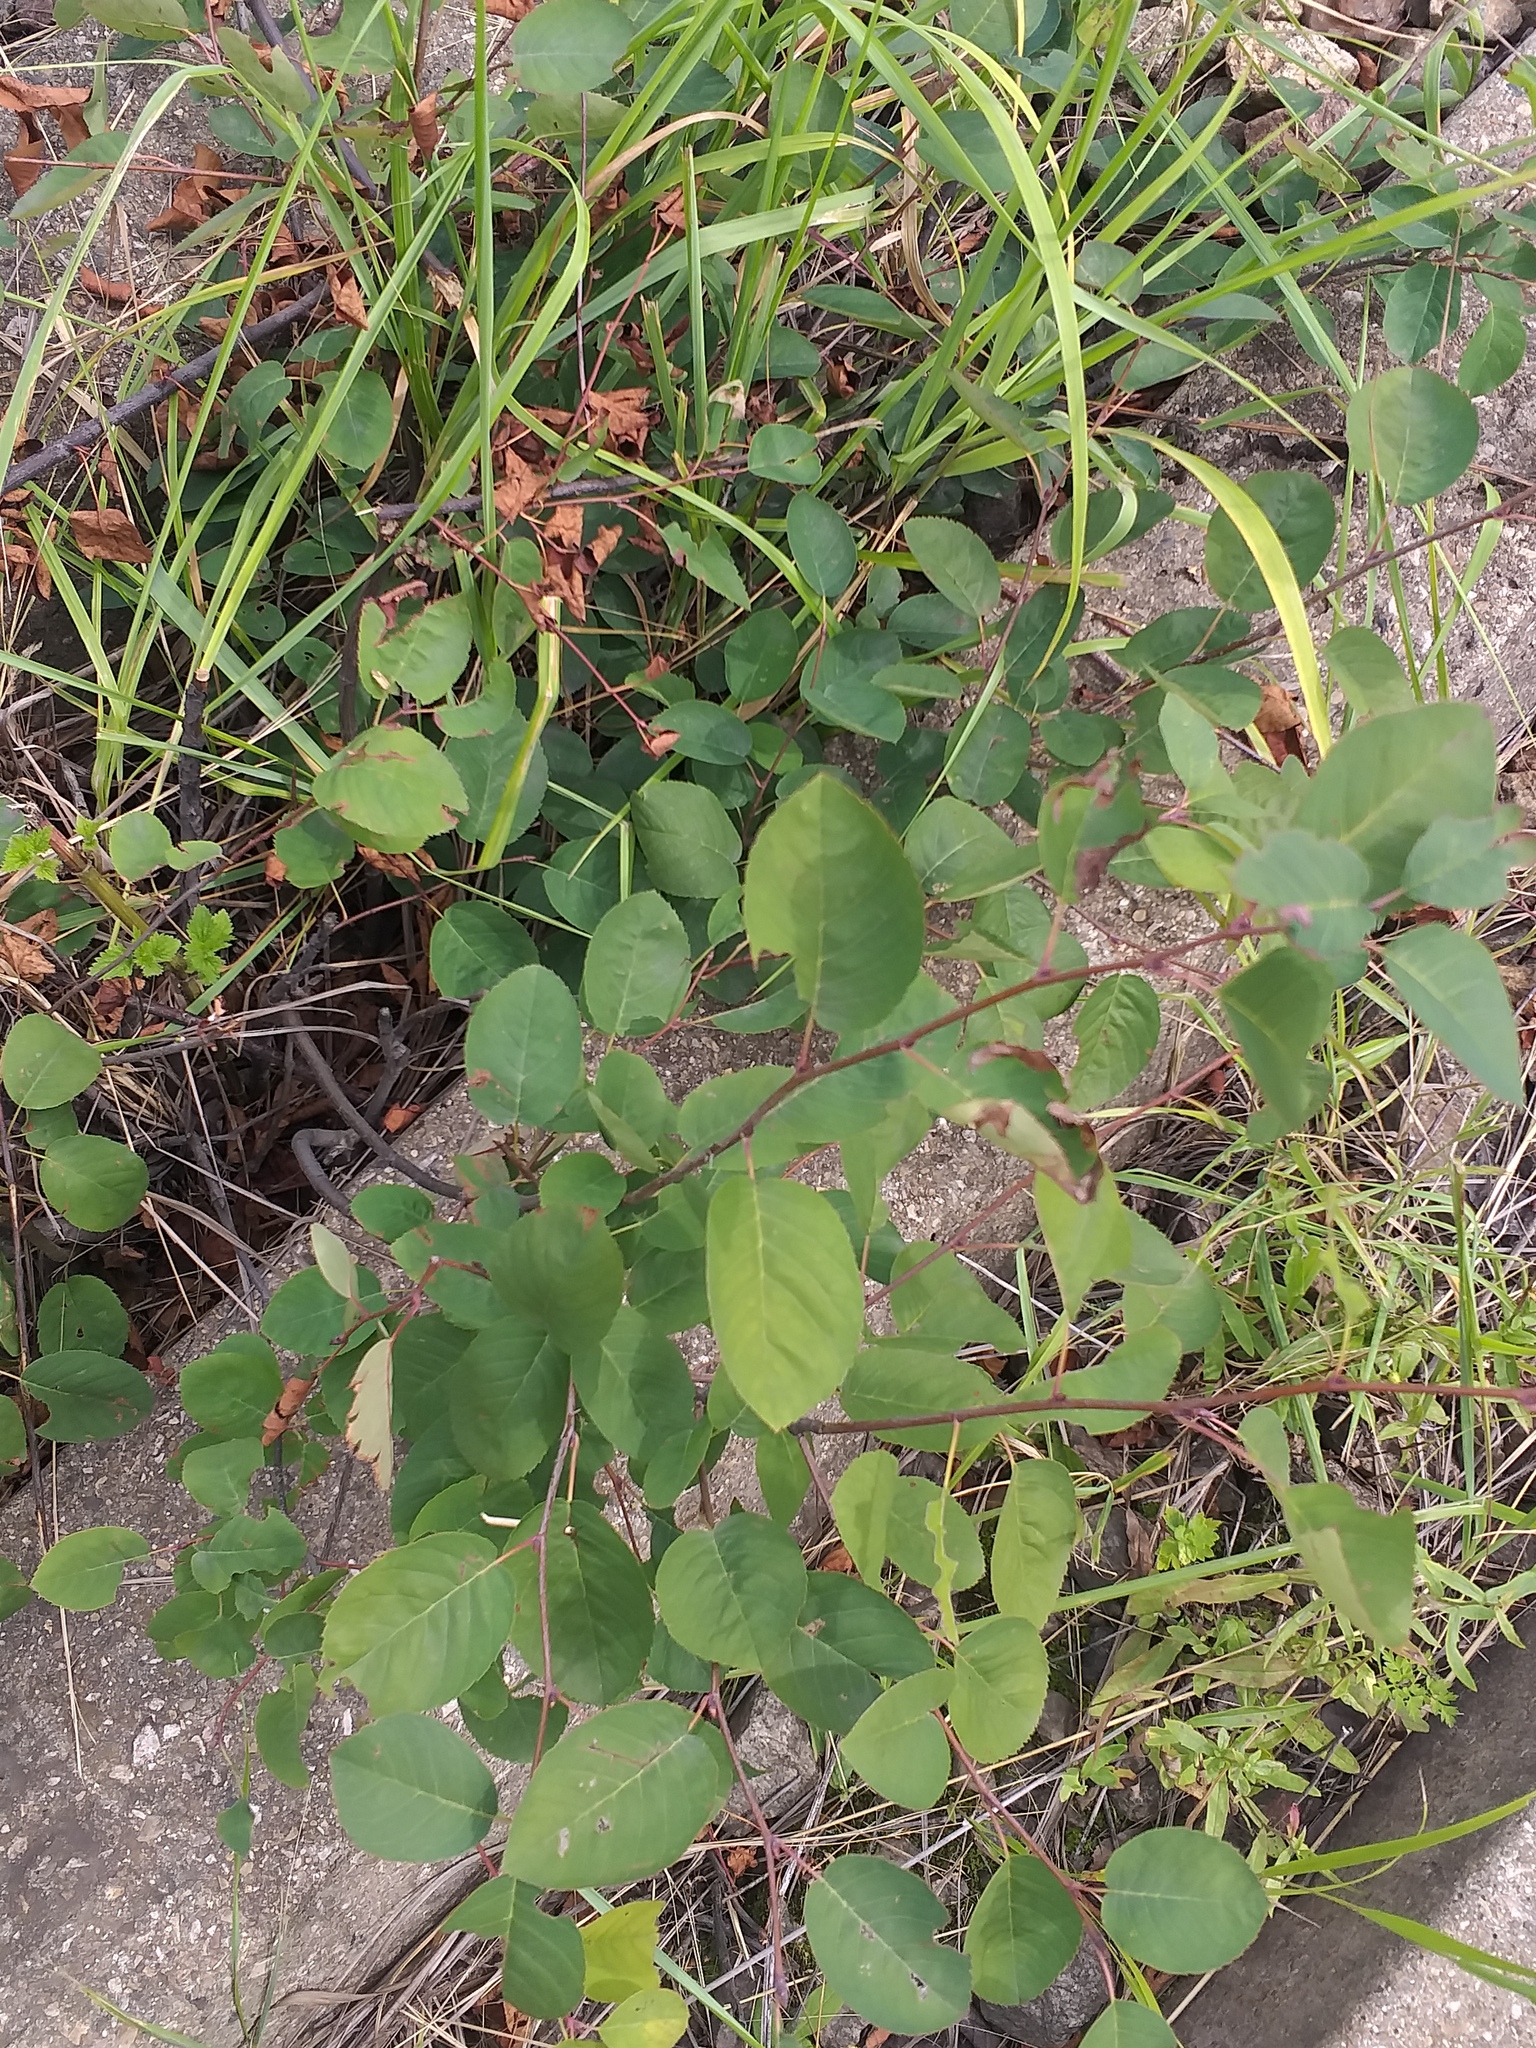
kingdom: Plantae
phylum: Tracheophyta
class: Magnoliopsida
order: Rosales
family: Rosaceae
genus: Amelanchier
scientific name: Amelanchier
